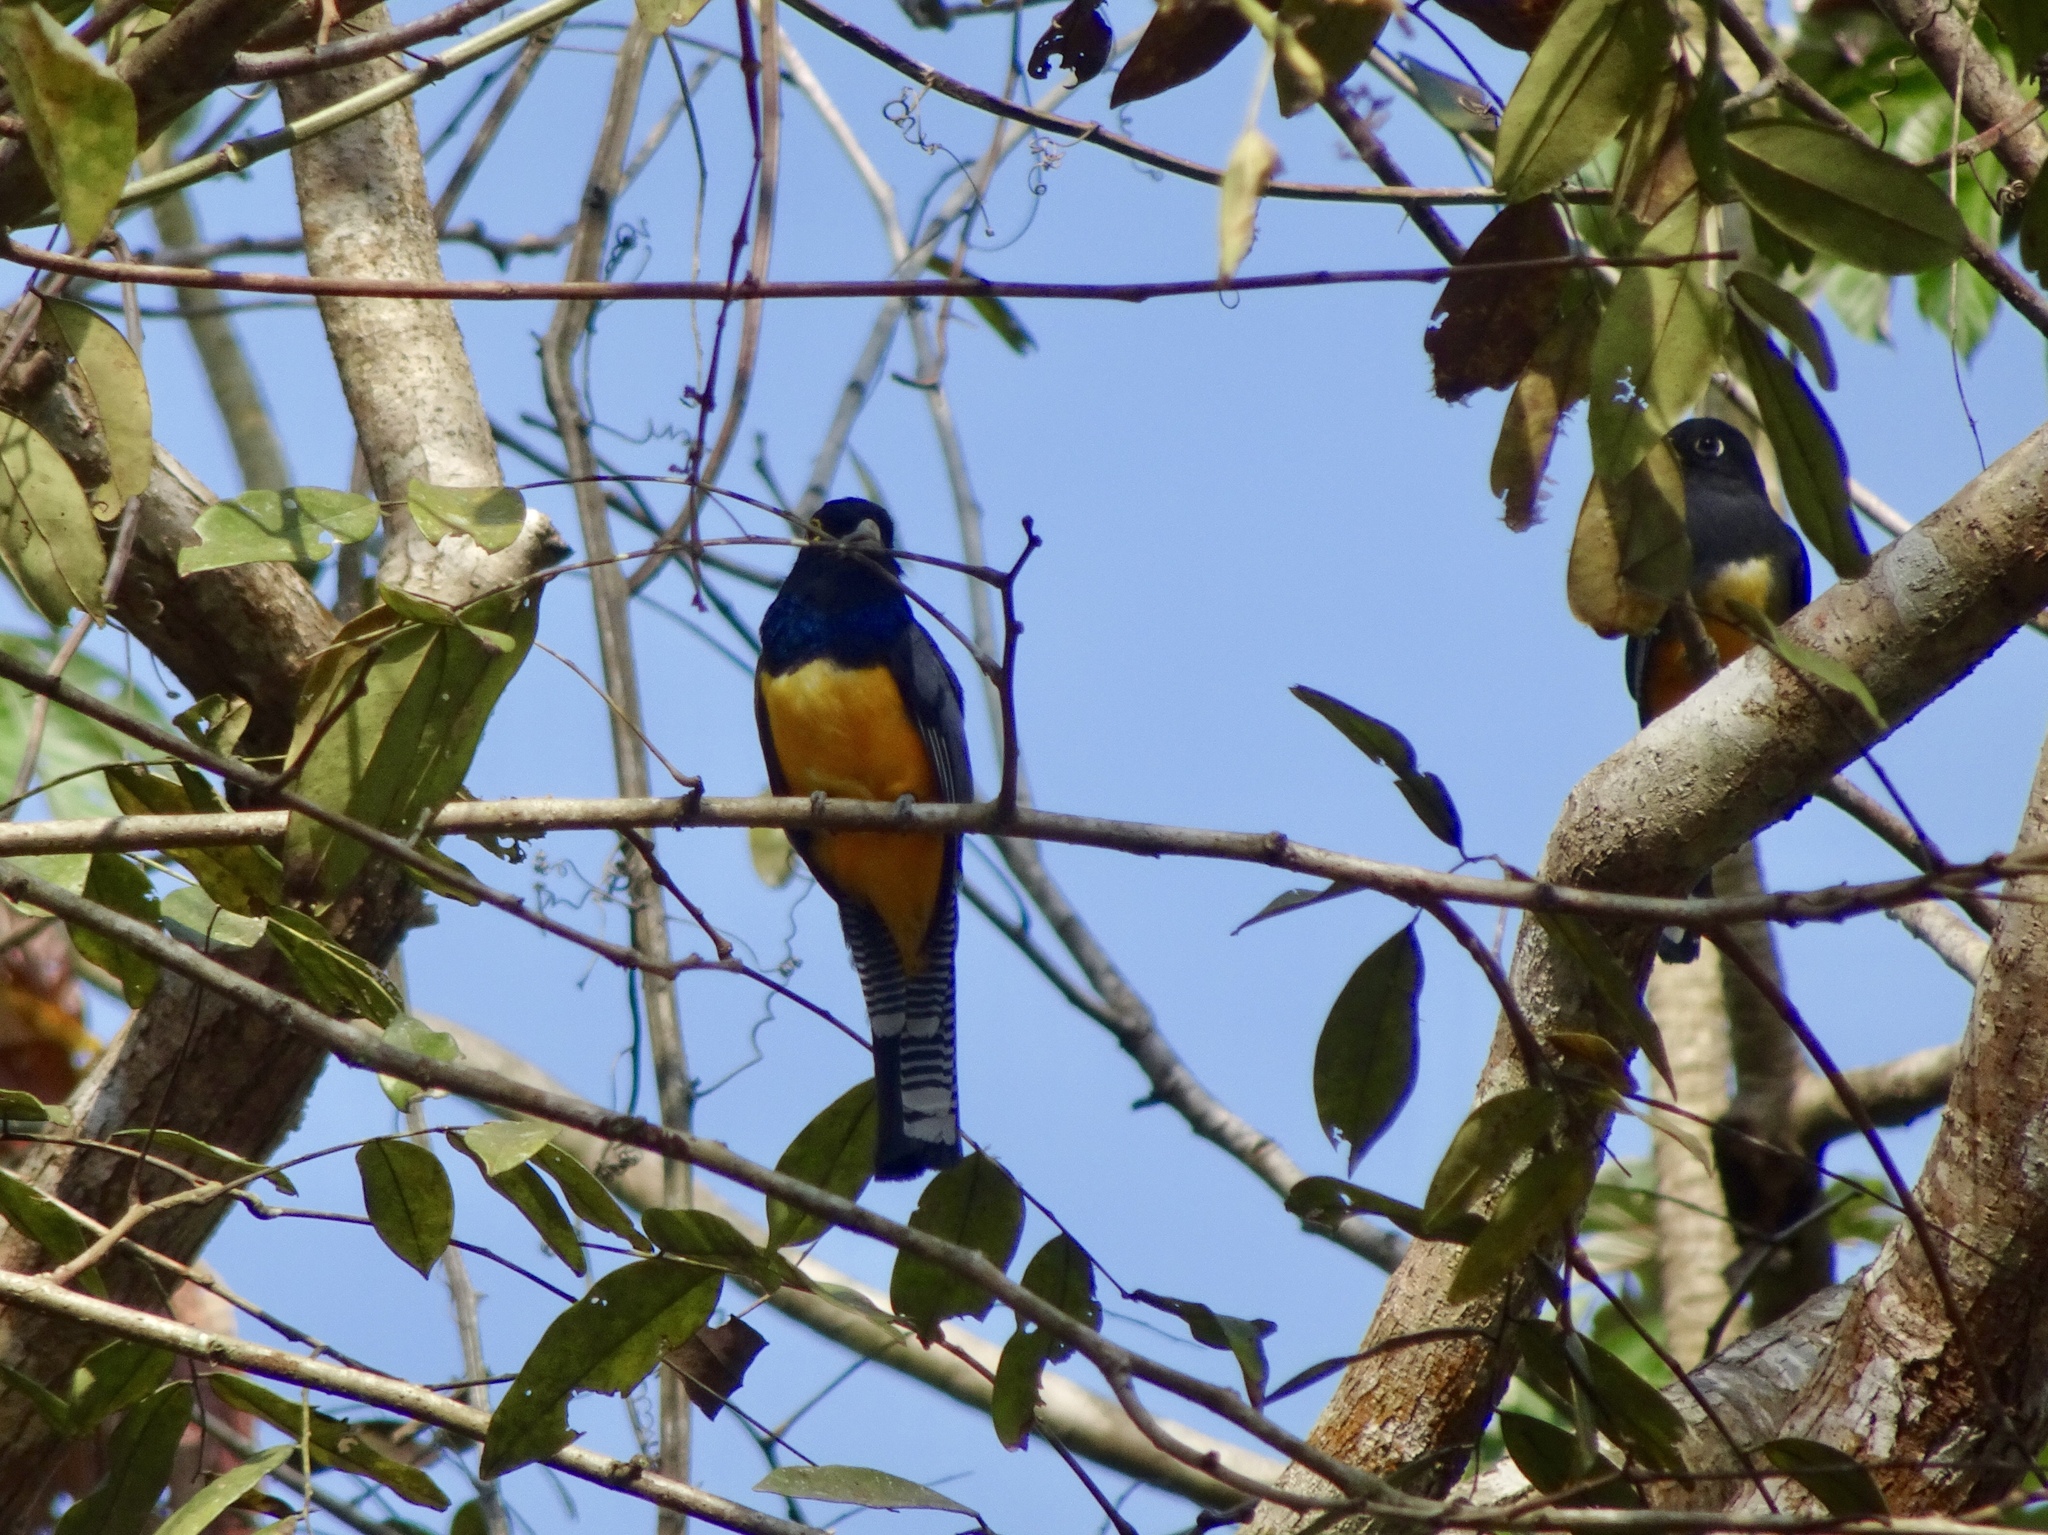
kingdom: Animalia
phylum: Chordata
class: Aves
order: Trogoniformes
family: Trogonidae
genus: Trogon
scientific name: Trogon caligatus
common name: Gartered trogon
